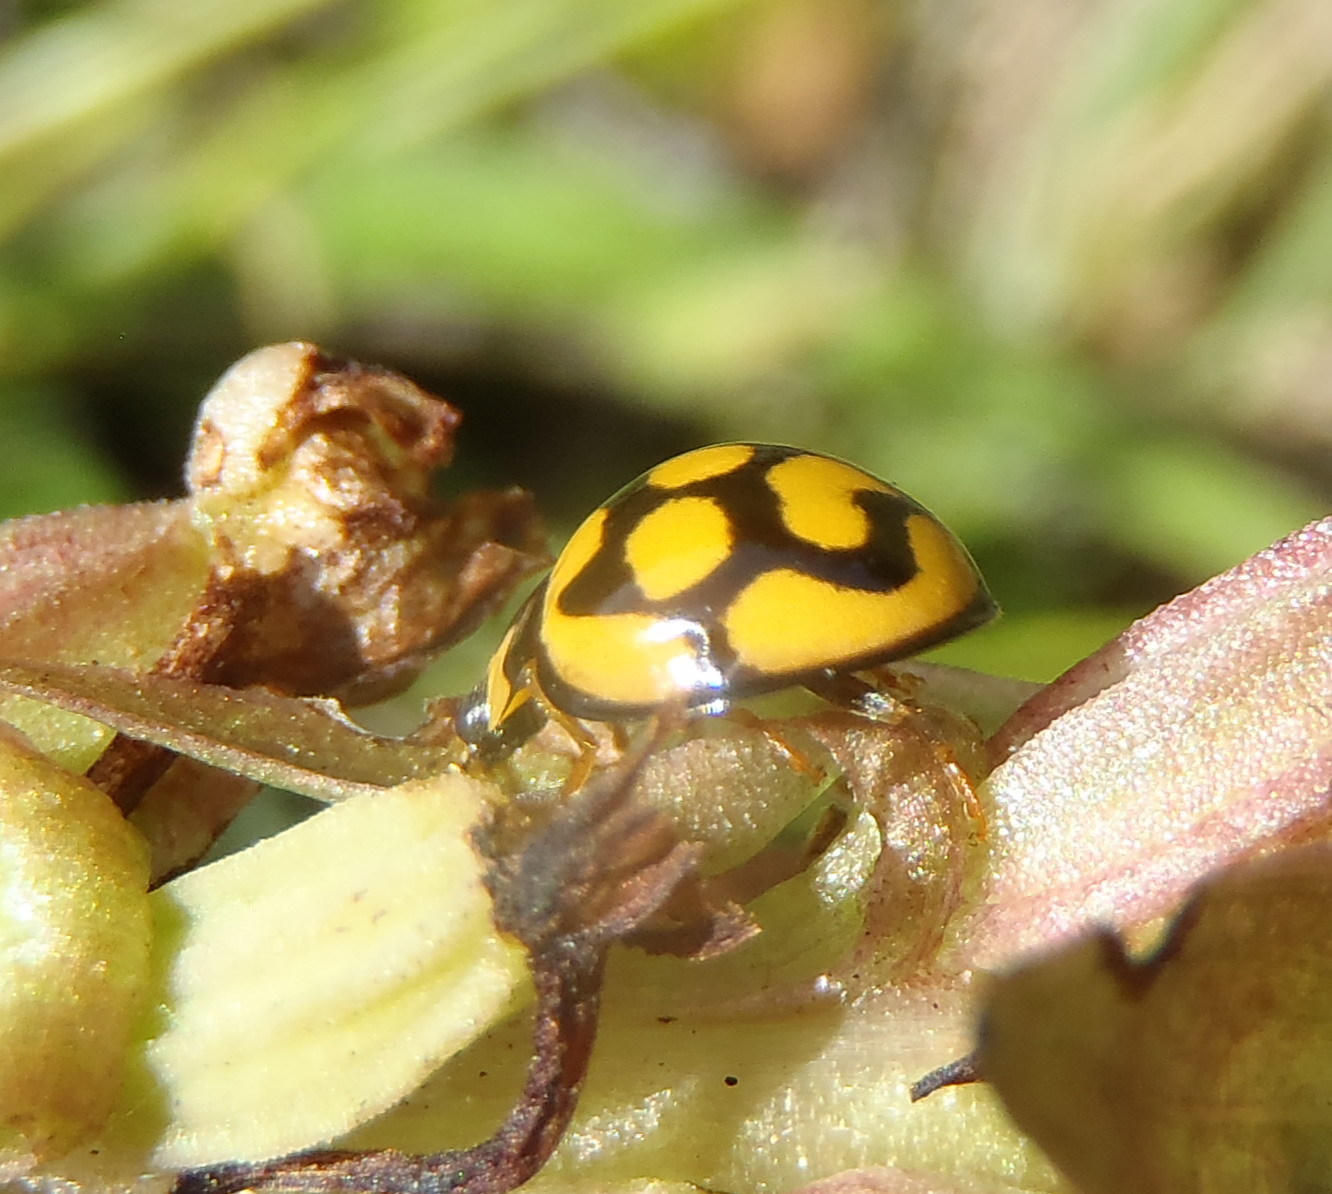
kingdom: Animalia
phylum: Arthropoda
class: Insecta
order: Coleoptera
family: Coccinellidae
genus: Cheilomenes
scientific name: Cheilomenes lunata
